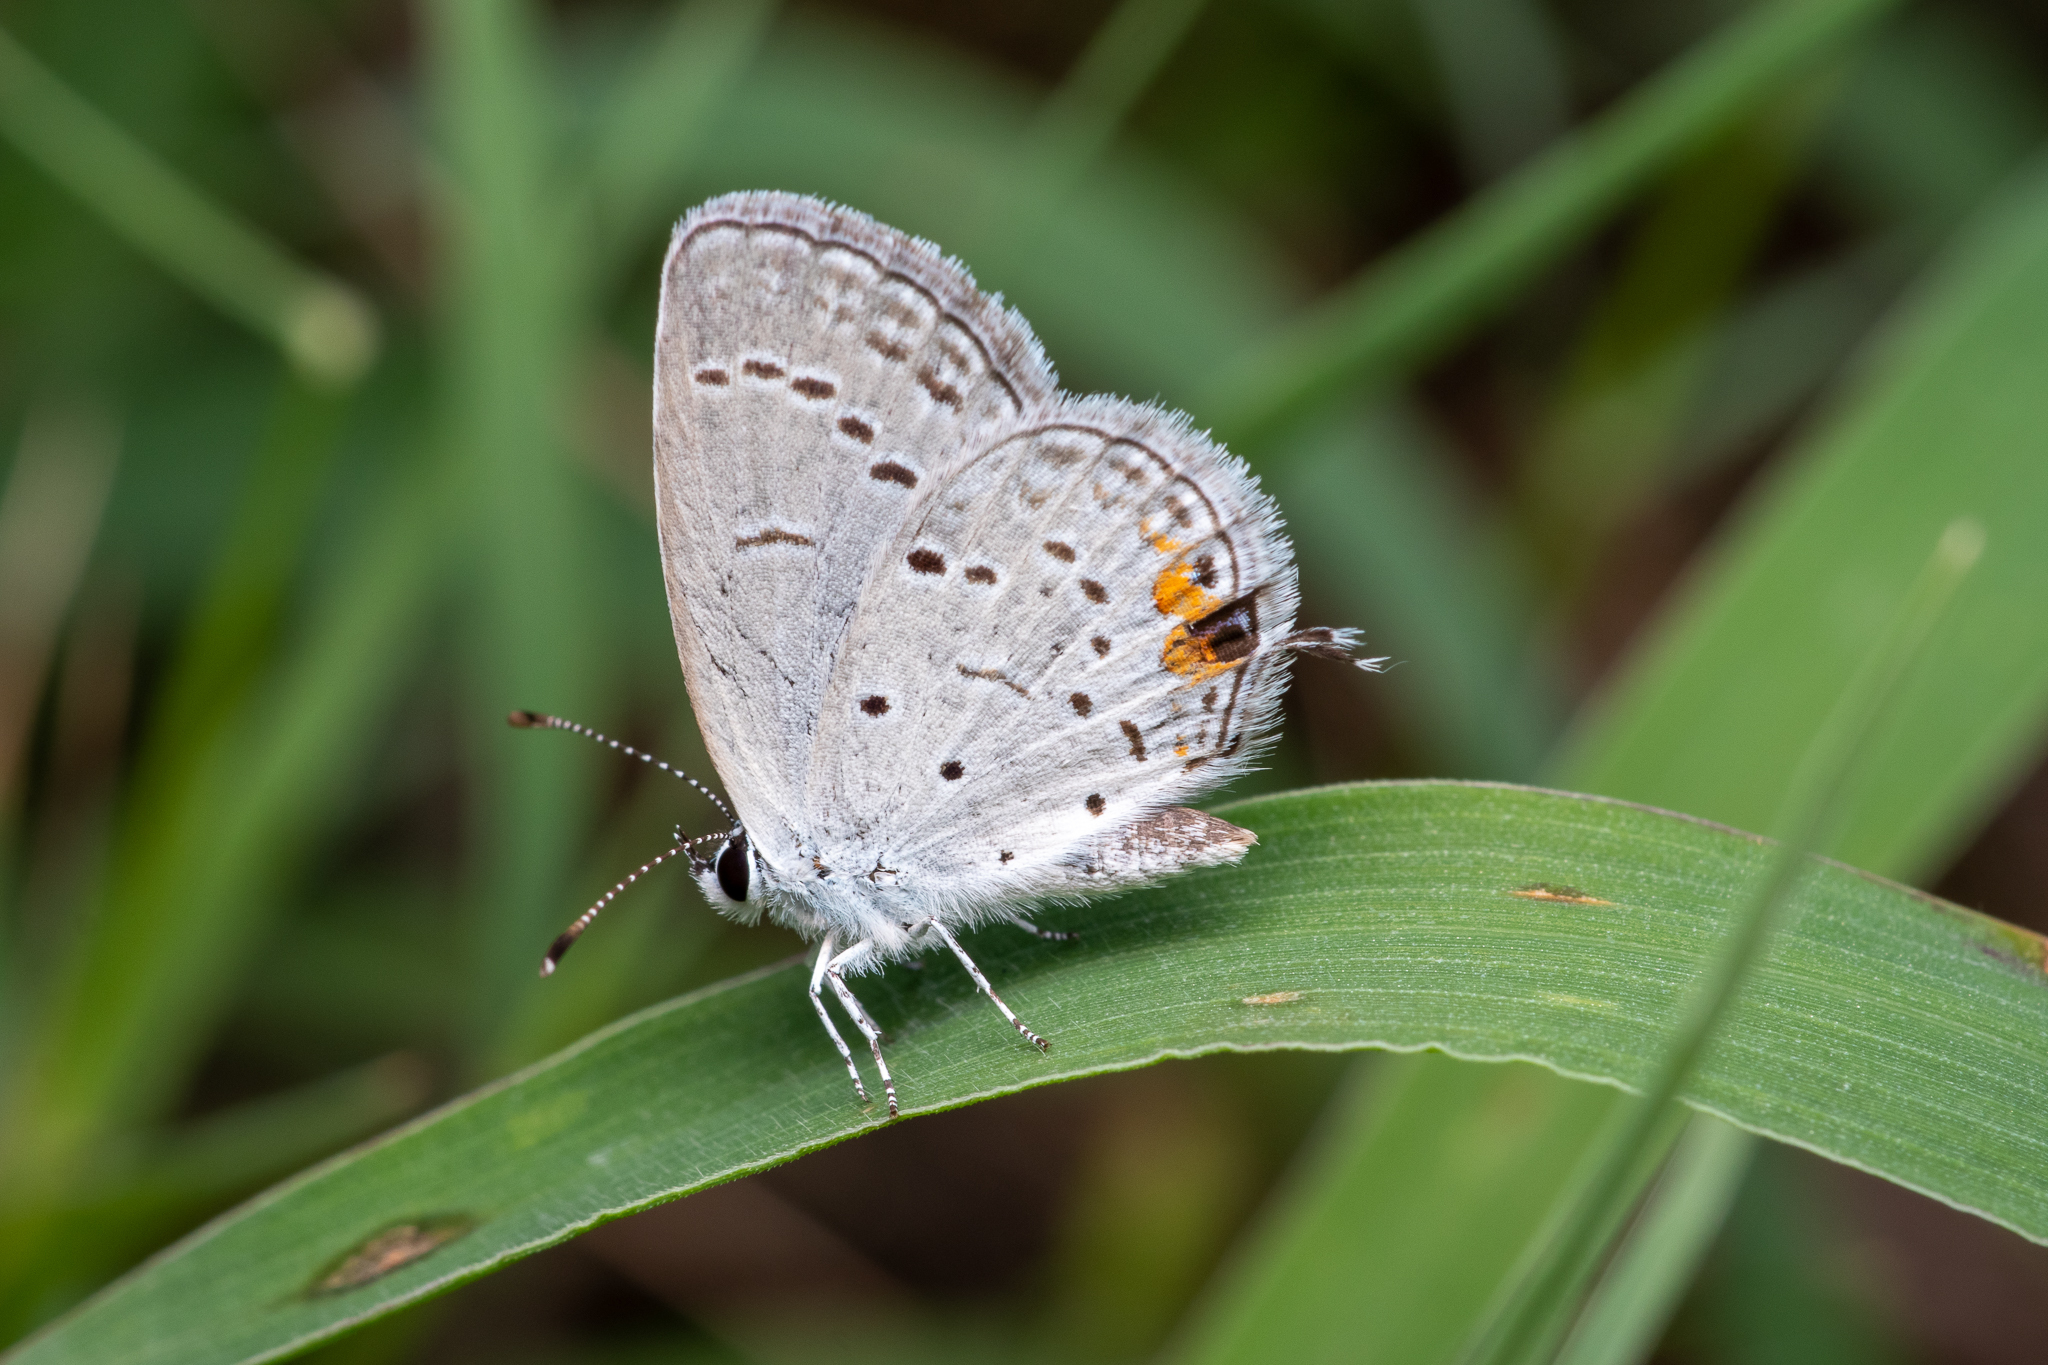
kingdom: Animalia
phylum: Arthropoda
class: Insecta
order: Lepidoptera
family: Lycaenidae
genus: Elkalyce
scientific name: Elkalyce comyntas
